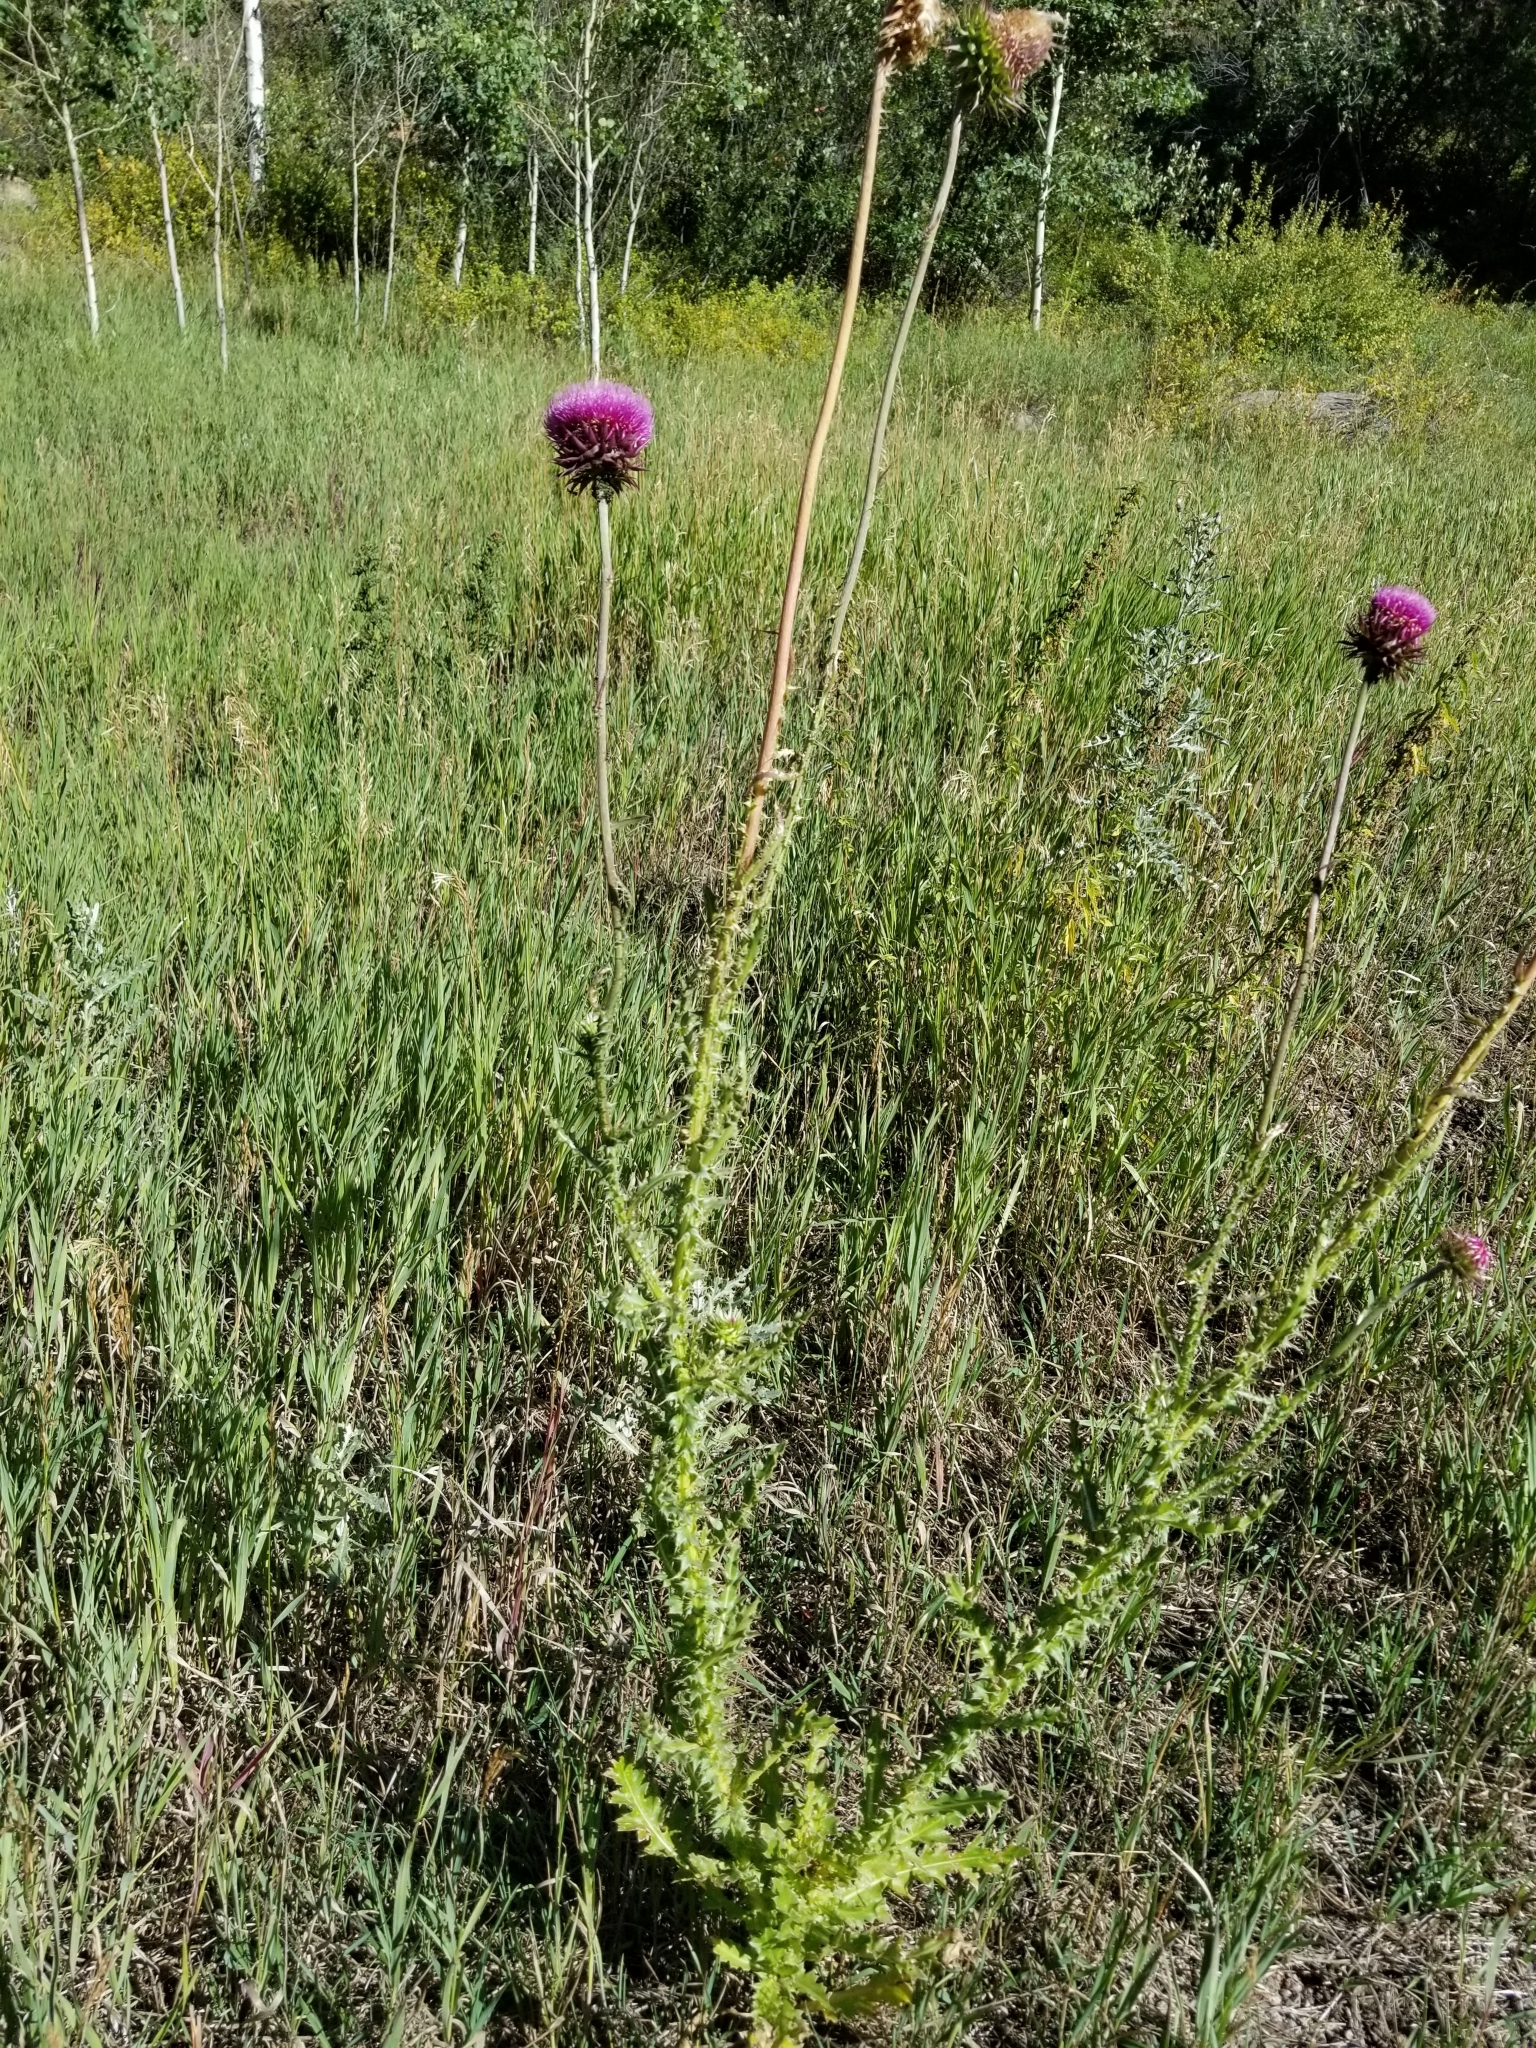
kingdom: Plantae
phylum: Tracheophyta
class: Magnoliopsida
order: Asterales
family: Asteraceae
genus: Carduus
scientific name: Carduus nutans
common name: Musk thistle
